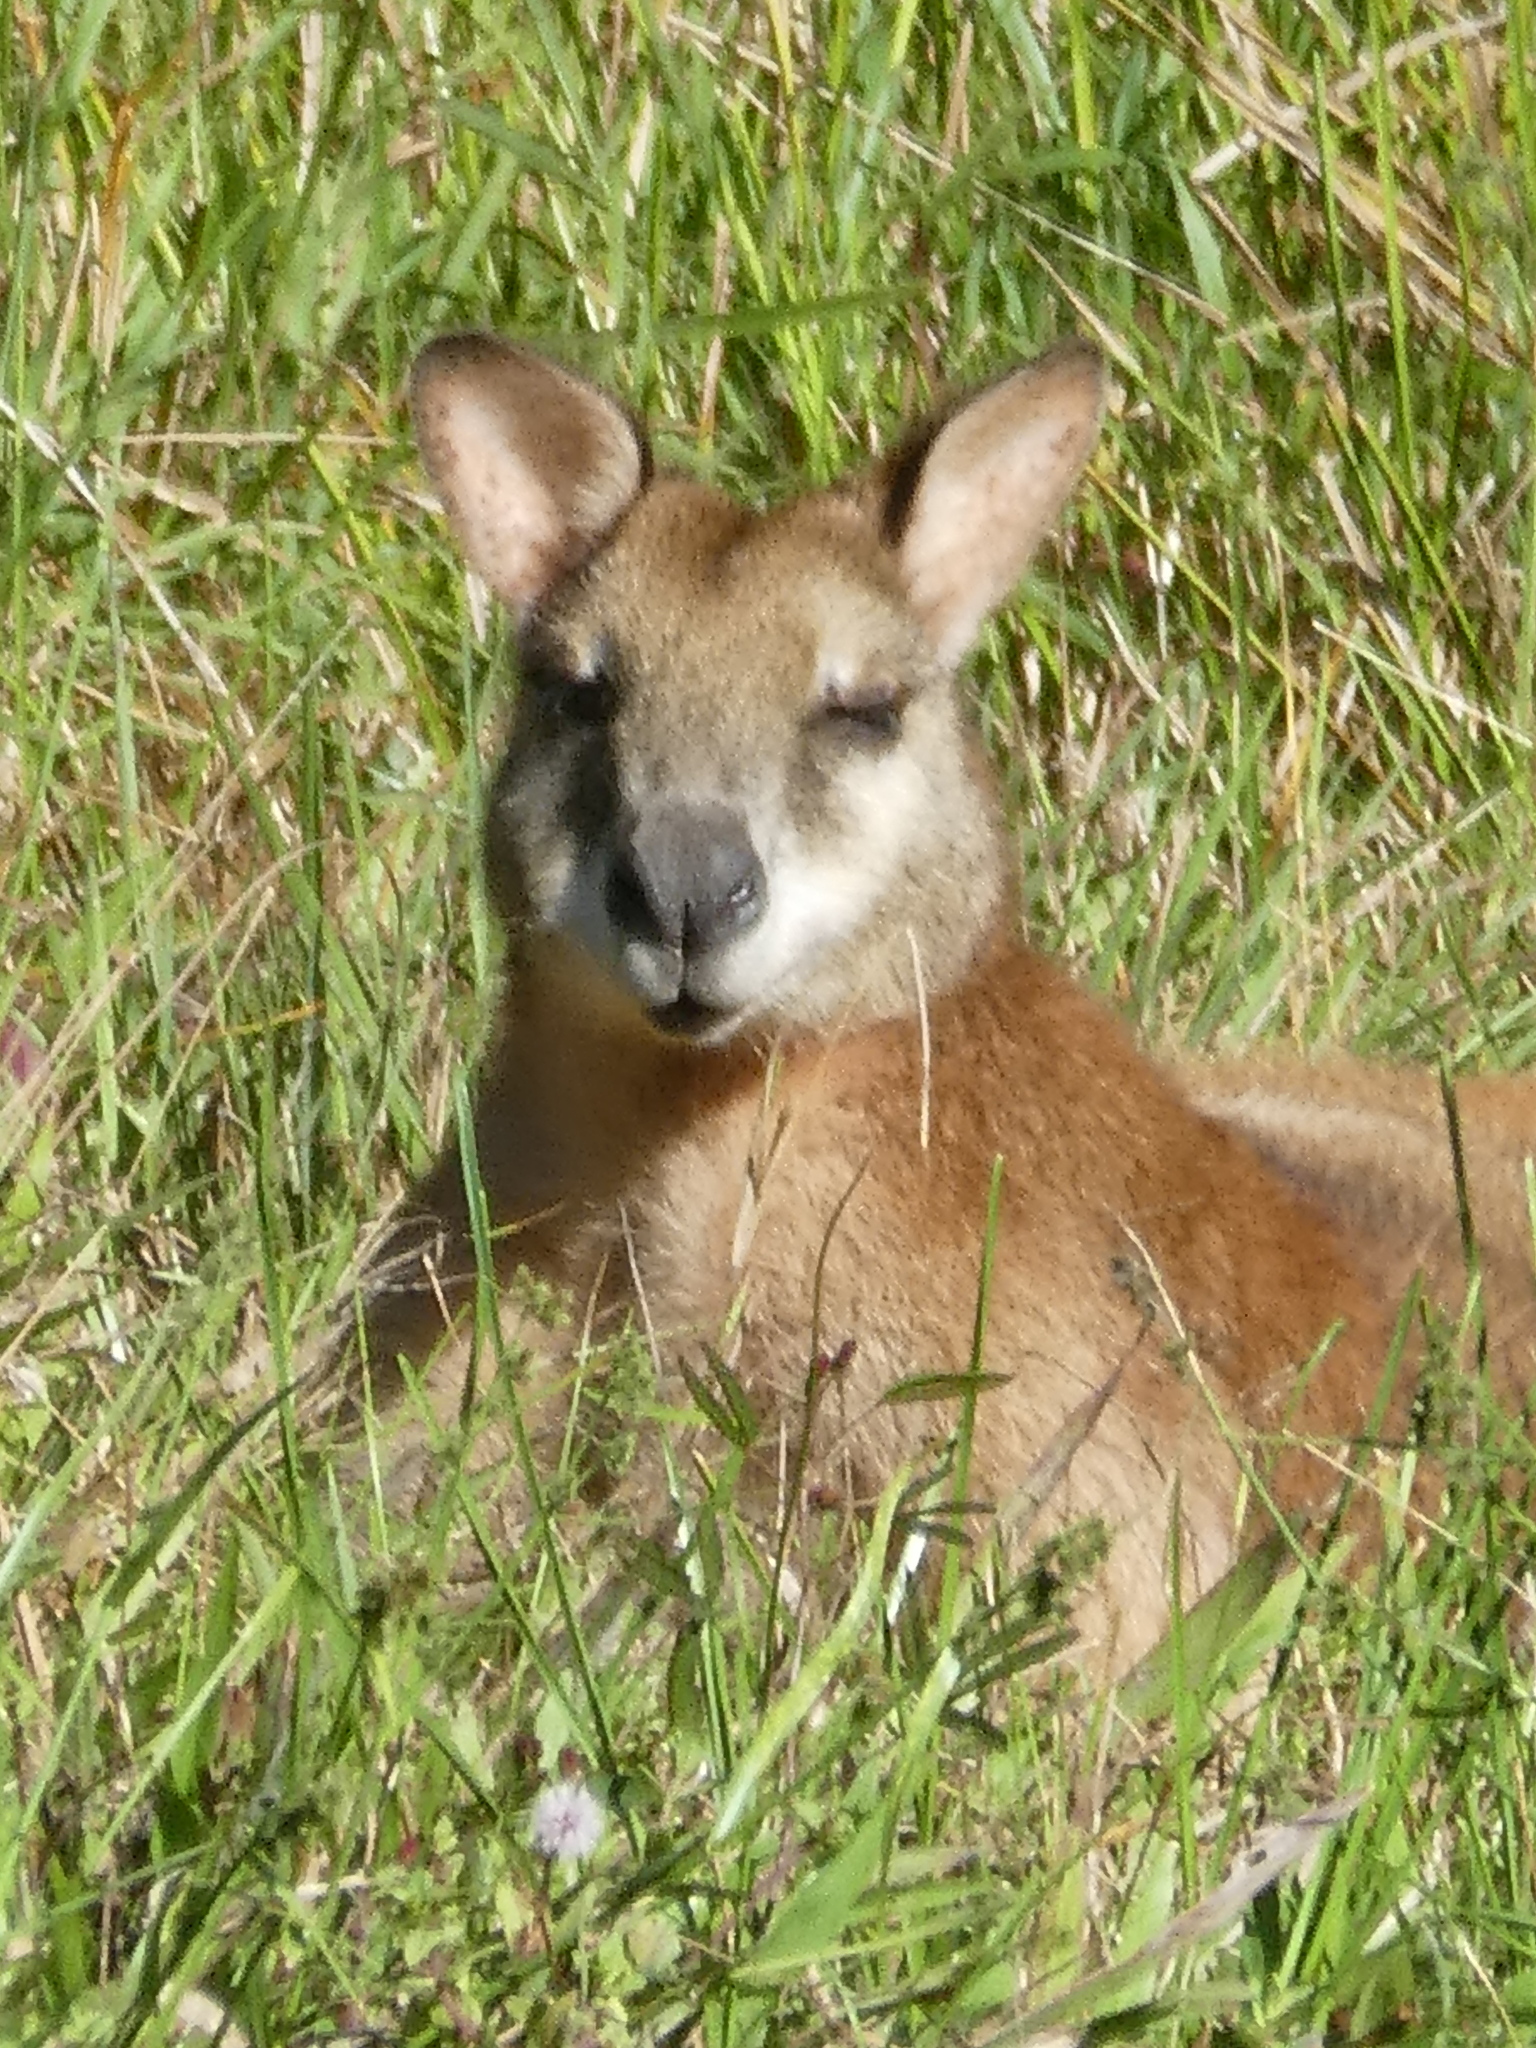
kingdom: Animalia
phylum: Chordata
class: Mammalia
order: Diprotodontia
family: Macropodidae
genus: Macropus
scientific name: Macropus agilis
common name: Agile wallaby
